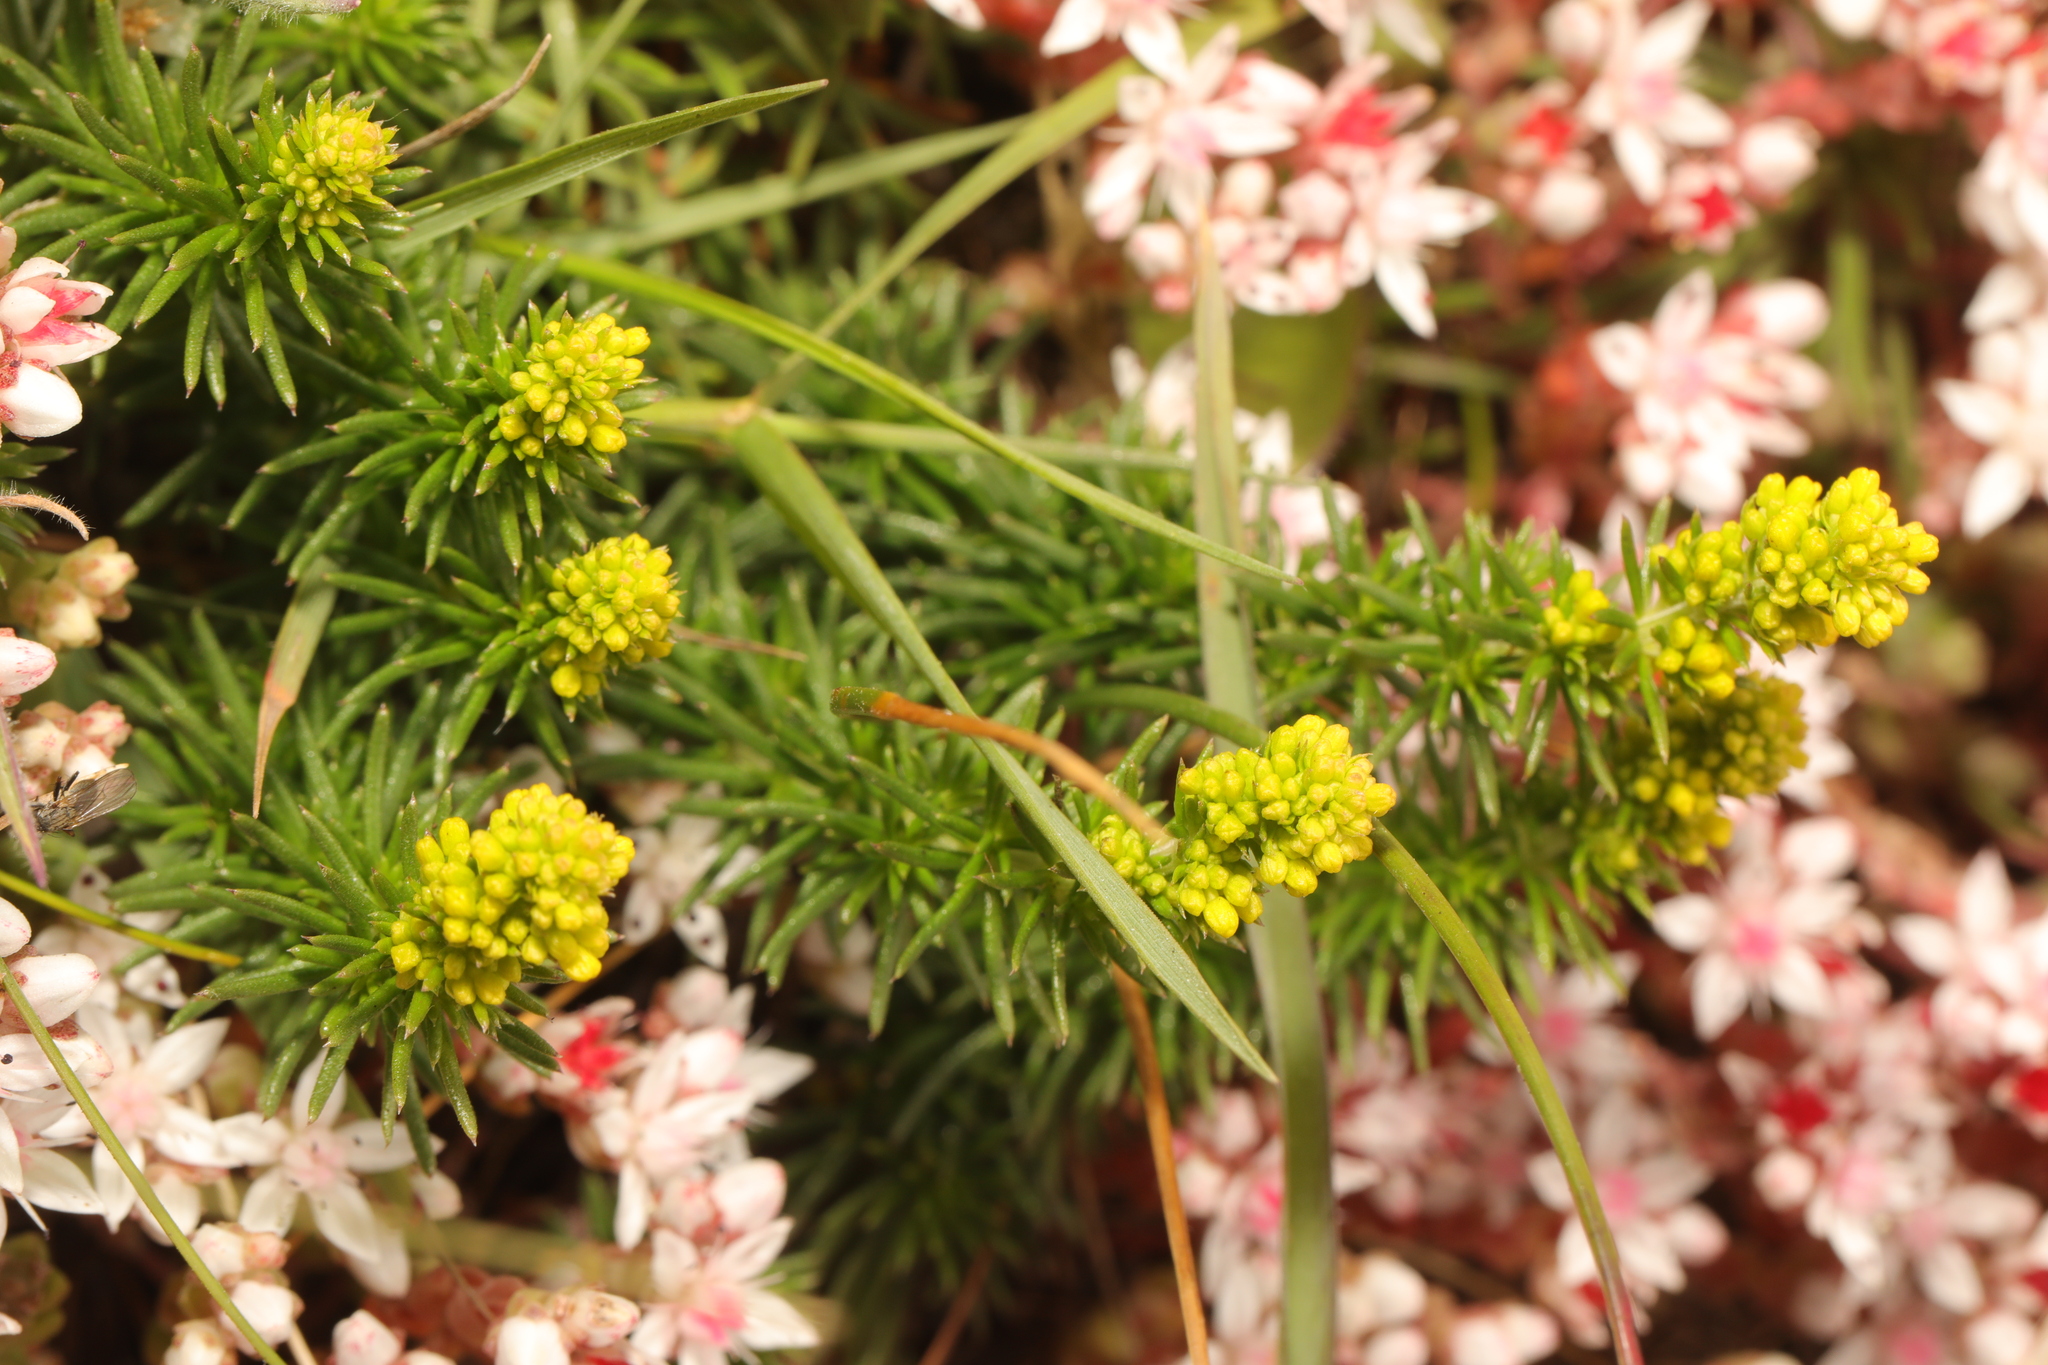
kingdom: Plantae
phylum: Tracheophyta
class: Magnoliopsida
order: Gentianales
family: Rubiaceae
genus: Galium
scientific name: Galium verum
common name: Lady's bedstraw
